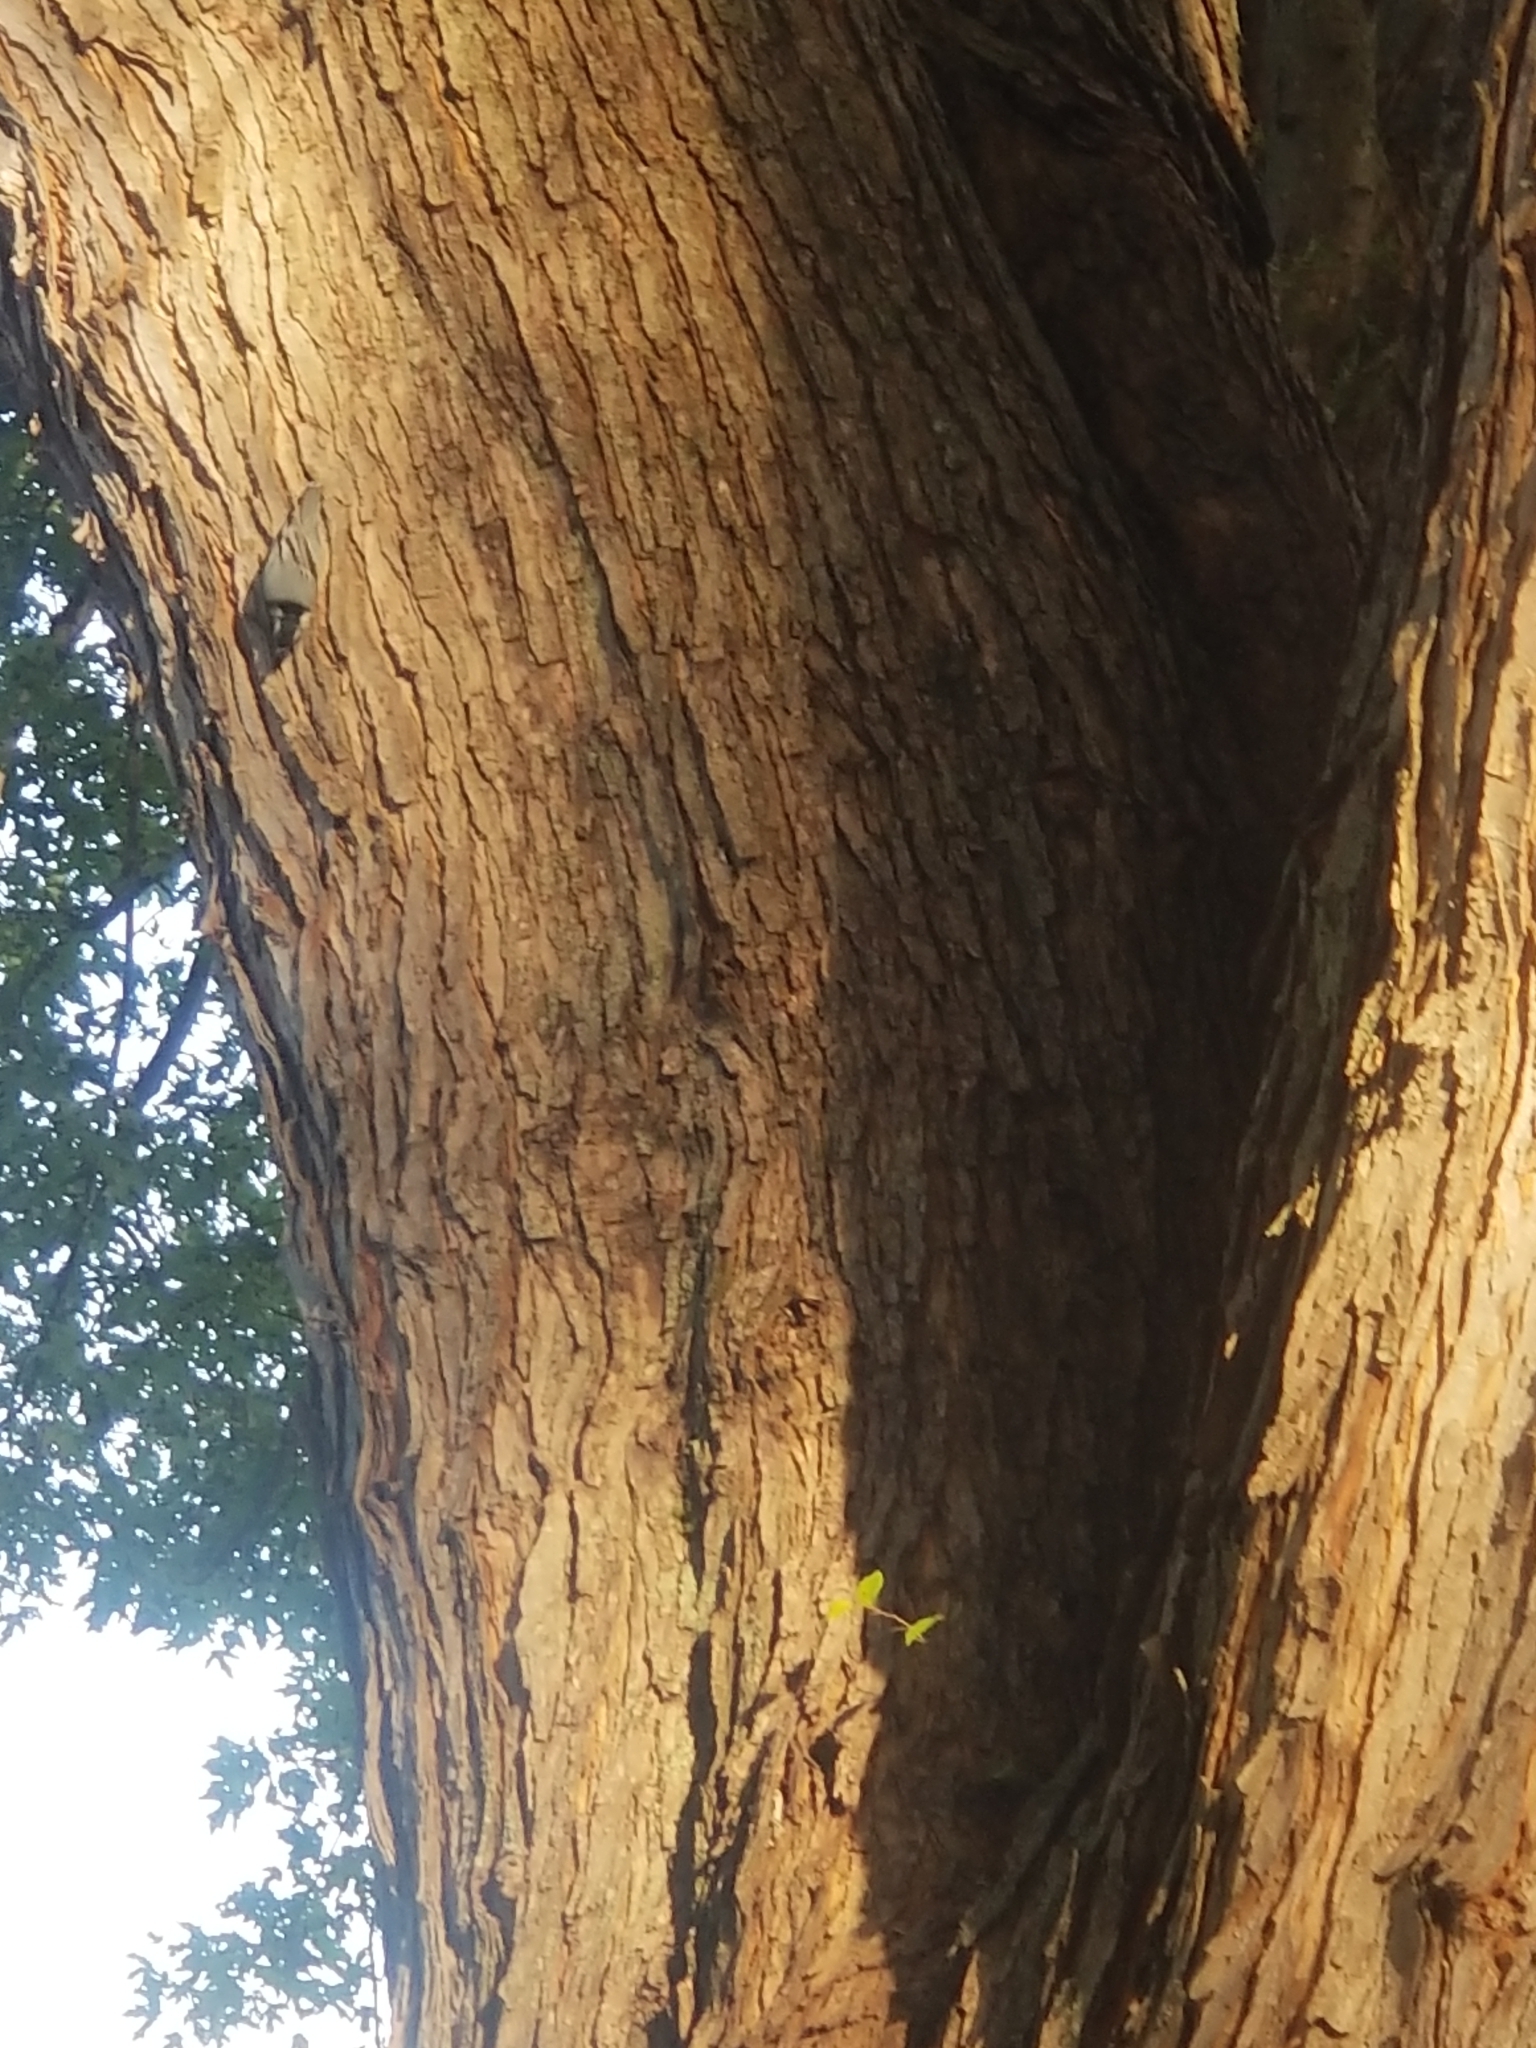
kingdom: Animalia
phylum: Chordata
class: Aves
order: Passeriformes
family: Sittidae
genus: Sitta
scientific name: Sitta carolinensis
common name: White-breasted nuthatch
